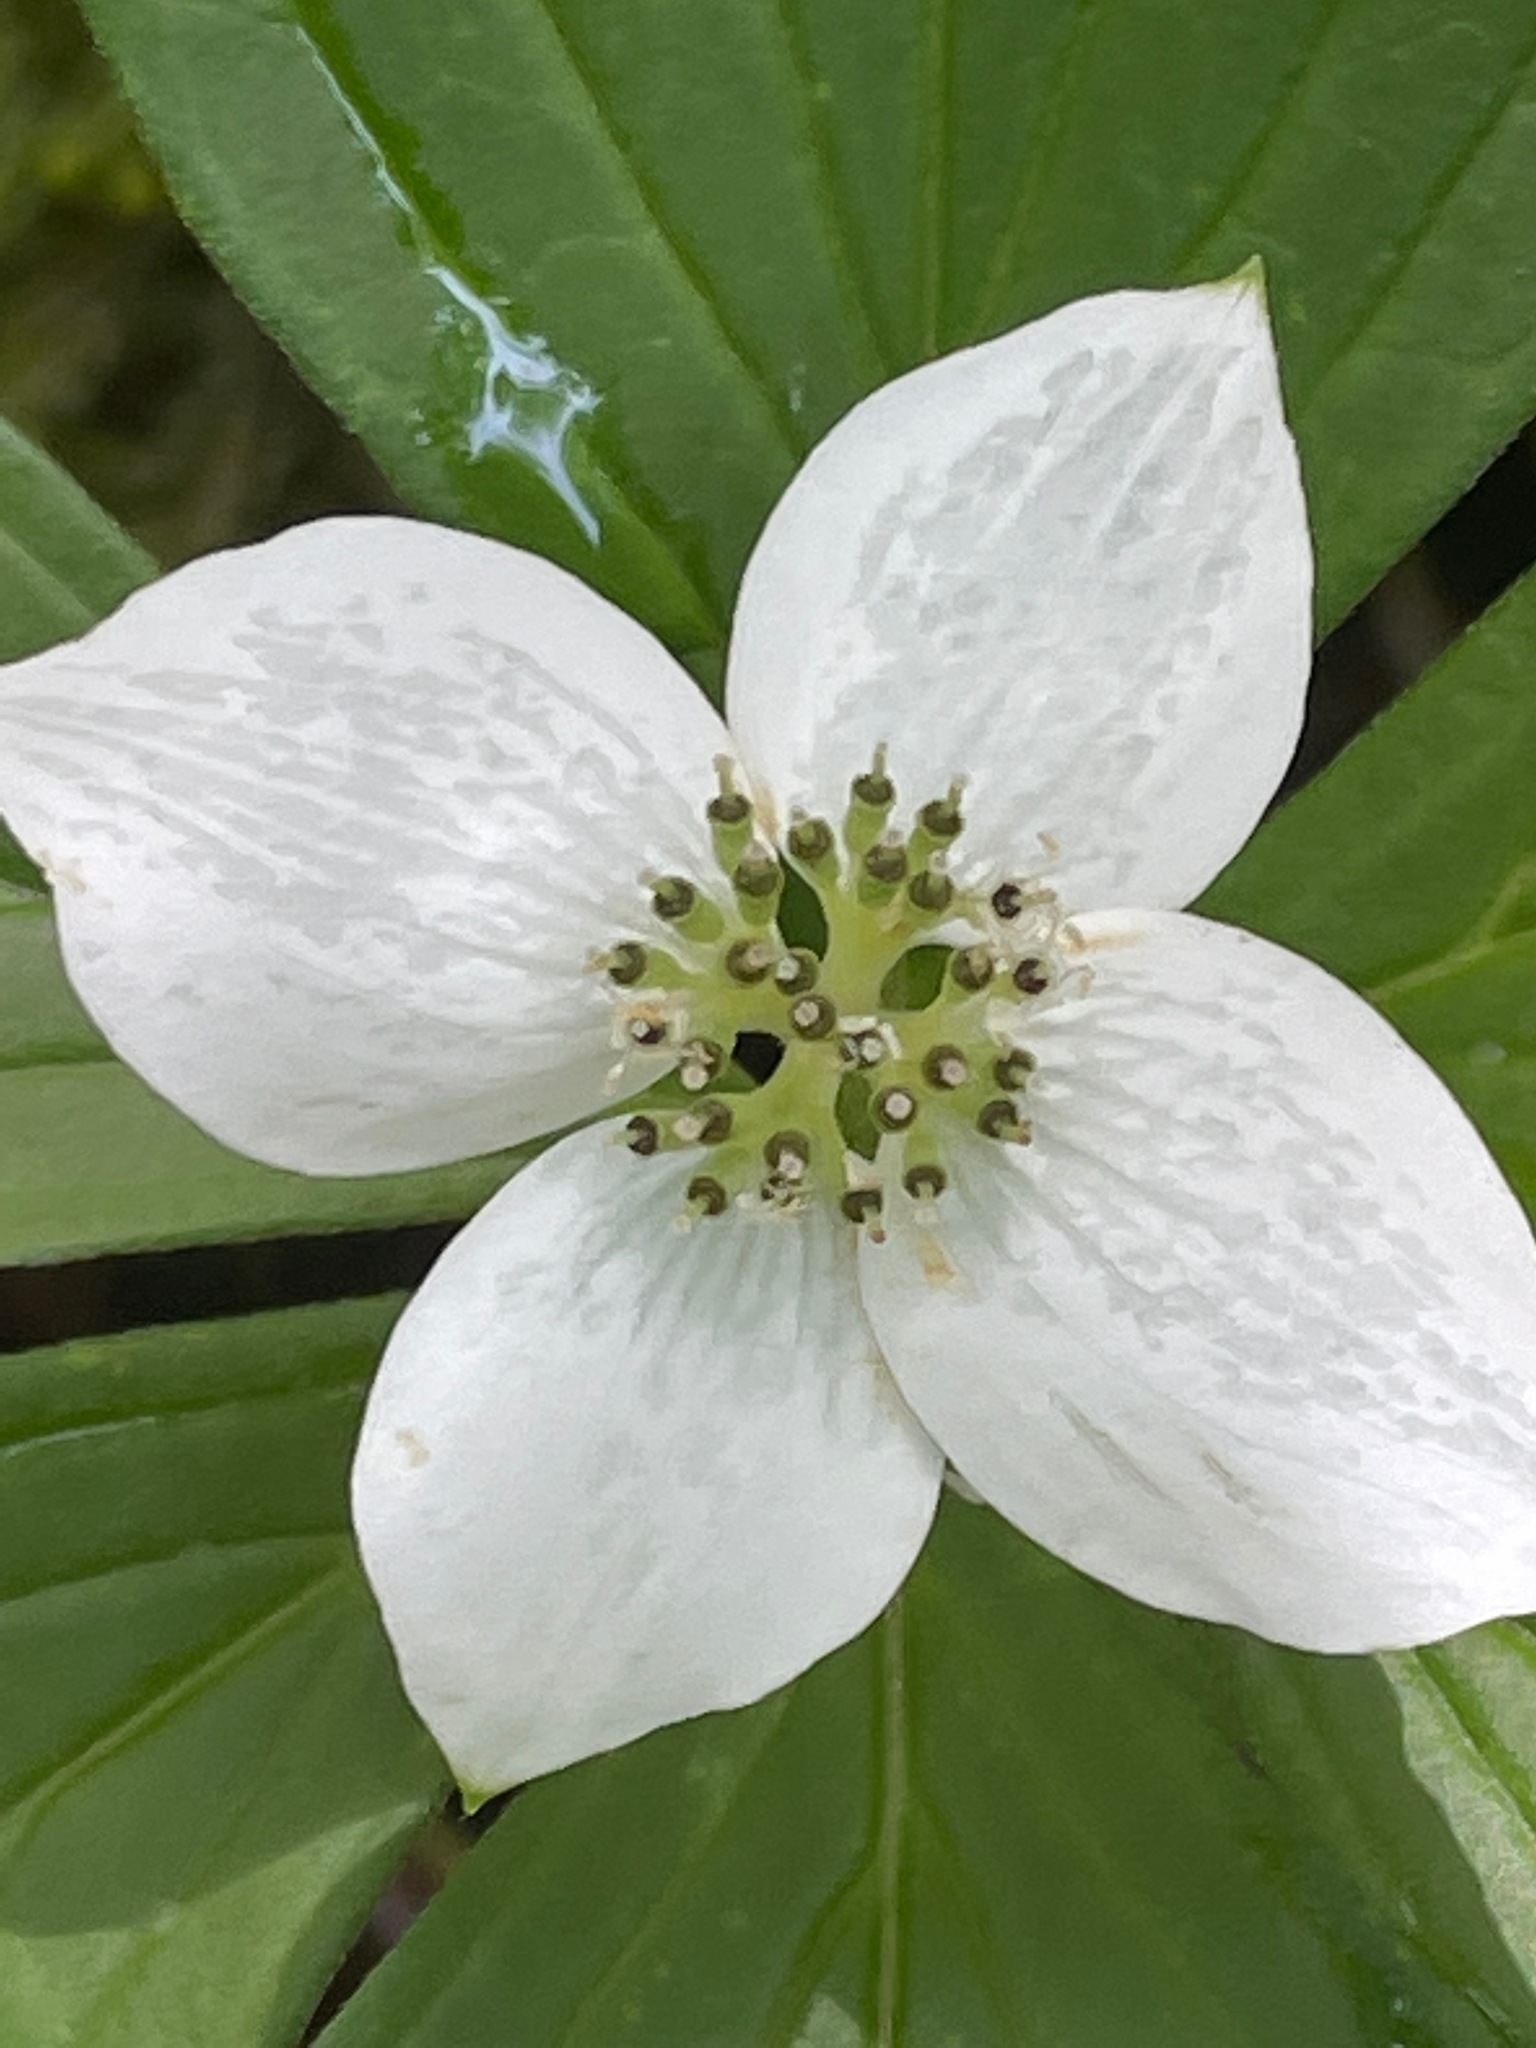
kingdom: Plantae
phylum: Tracheophyta
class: Magnoliopsida
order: Cornales
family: Cornaceae
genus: Cornus
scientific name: Cornus canadensis
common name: Creeping dogwood
